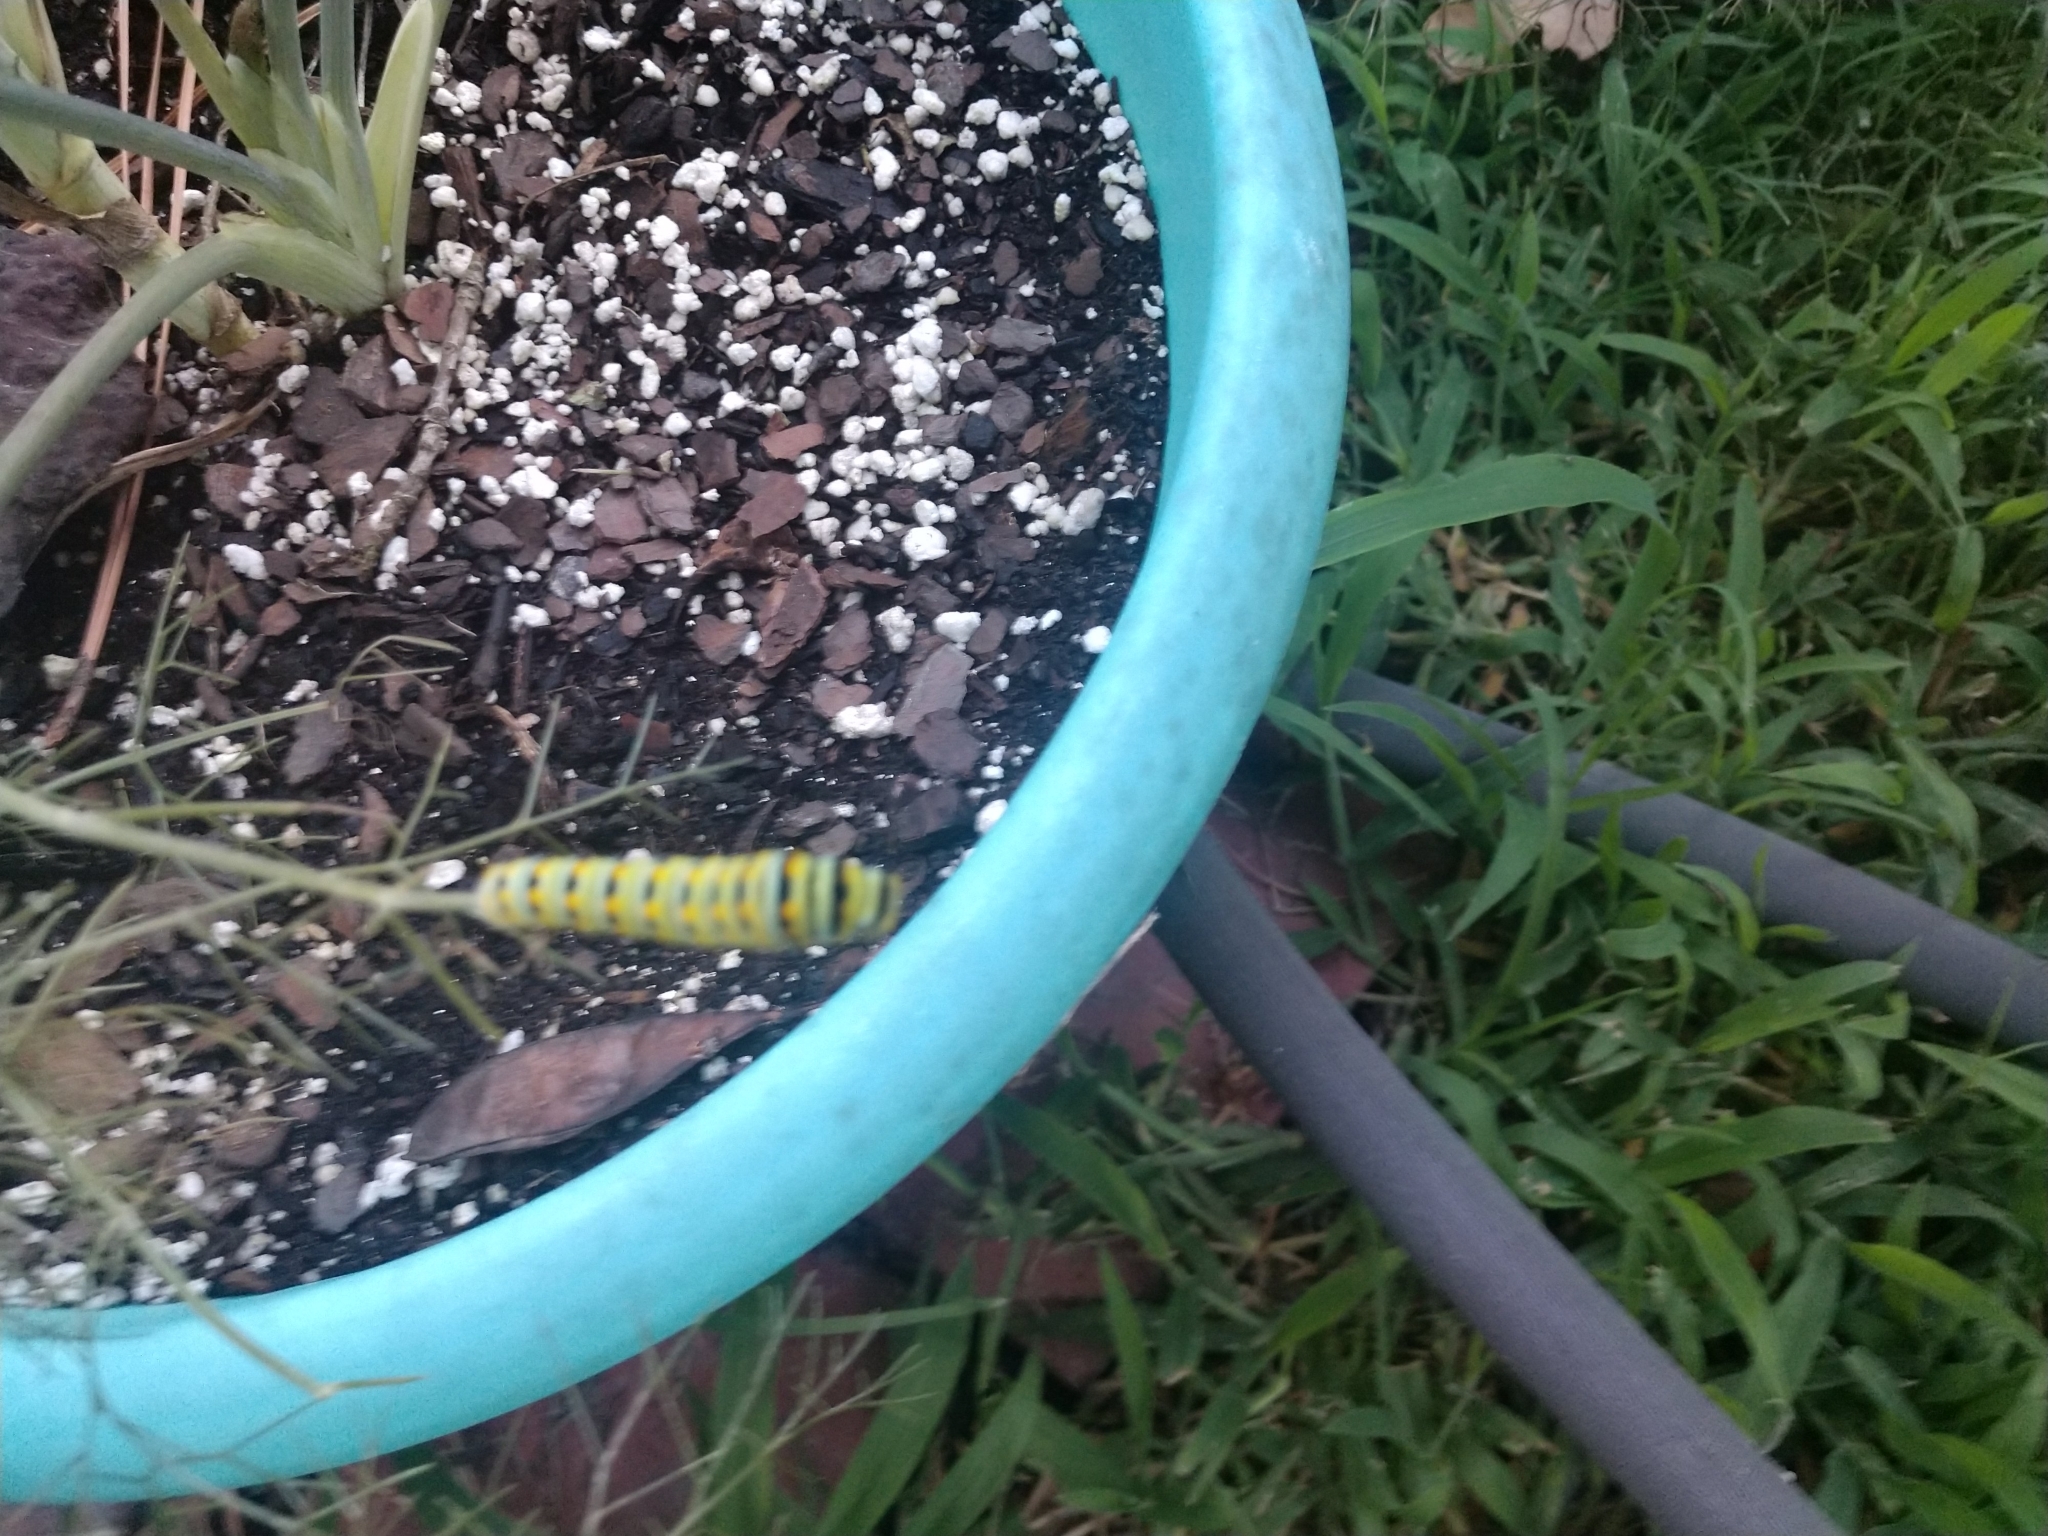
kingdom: Animalia
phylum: Arthropoda
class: Insecta
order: Lepidoptera
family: Papilionidae
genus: Papilio
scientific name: Papilio polyxenes
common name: Black swallowtail
